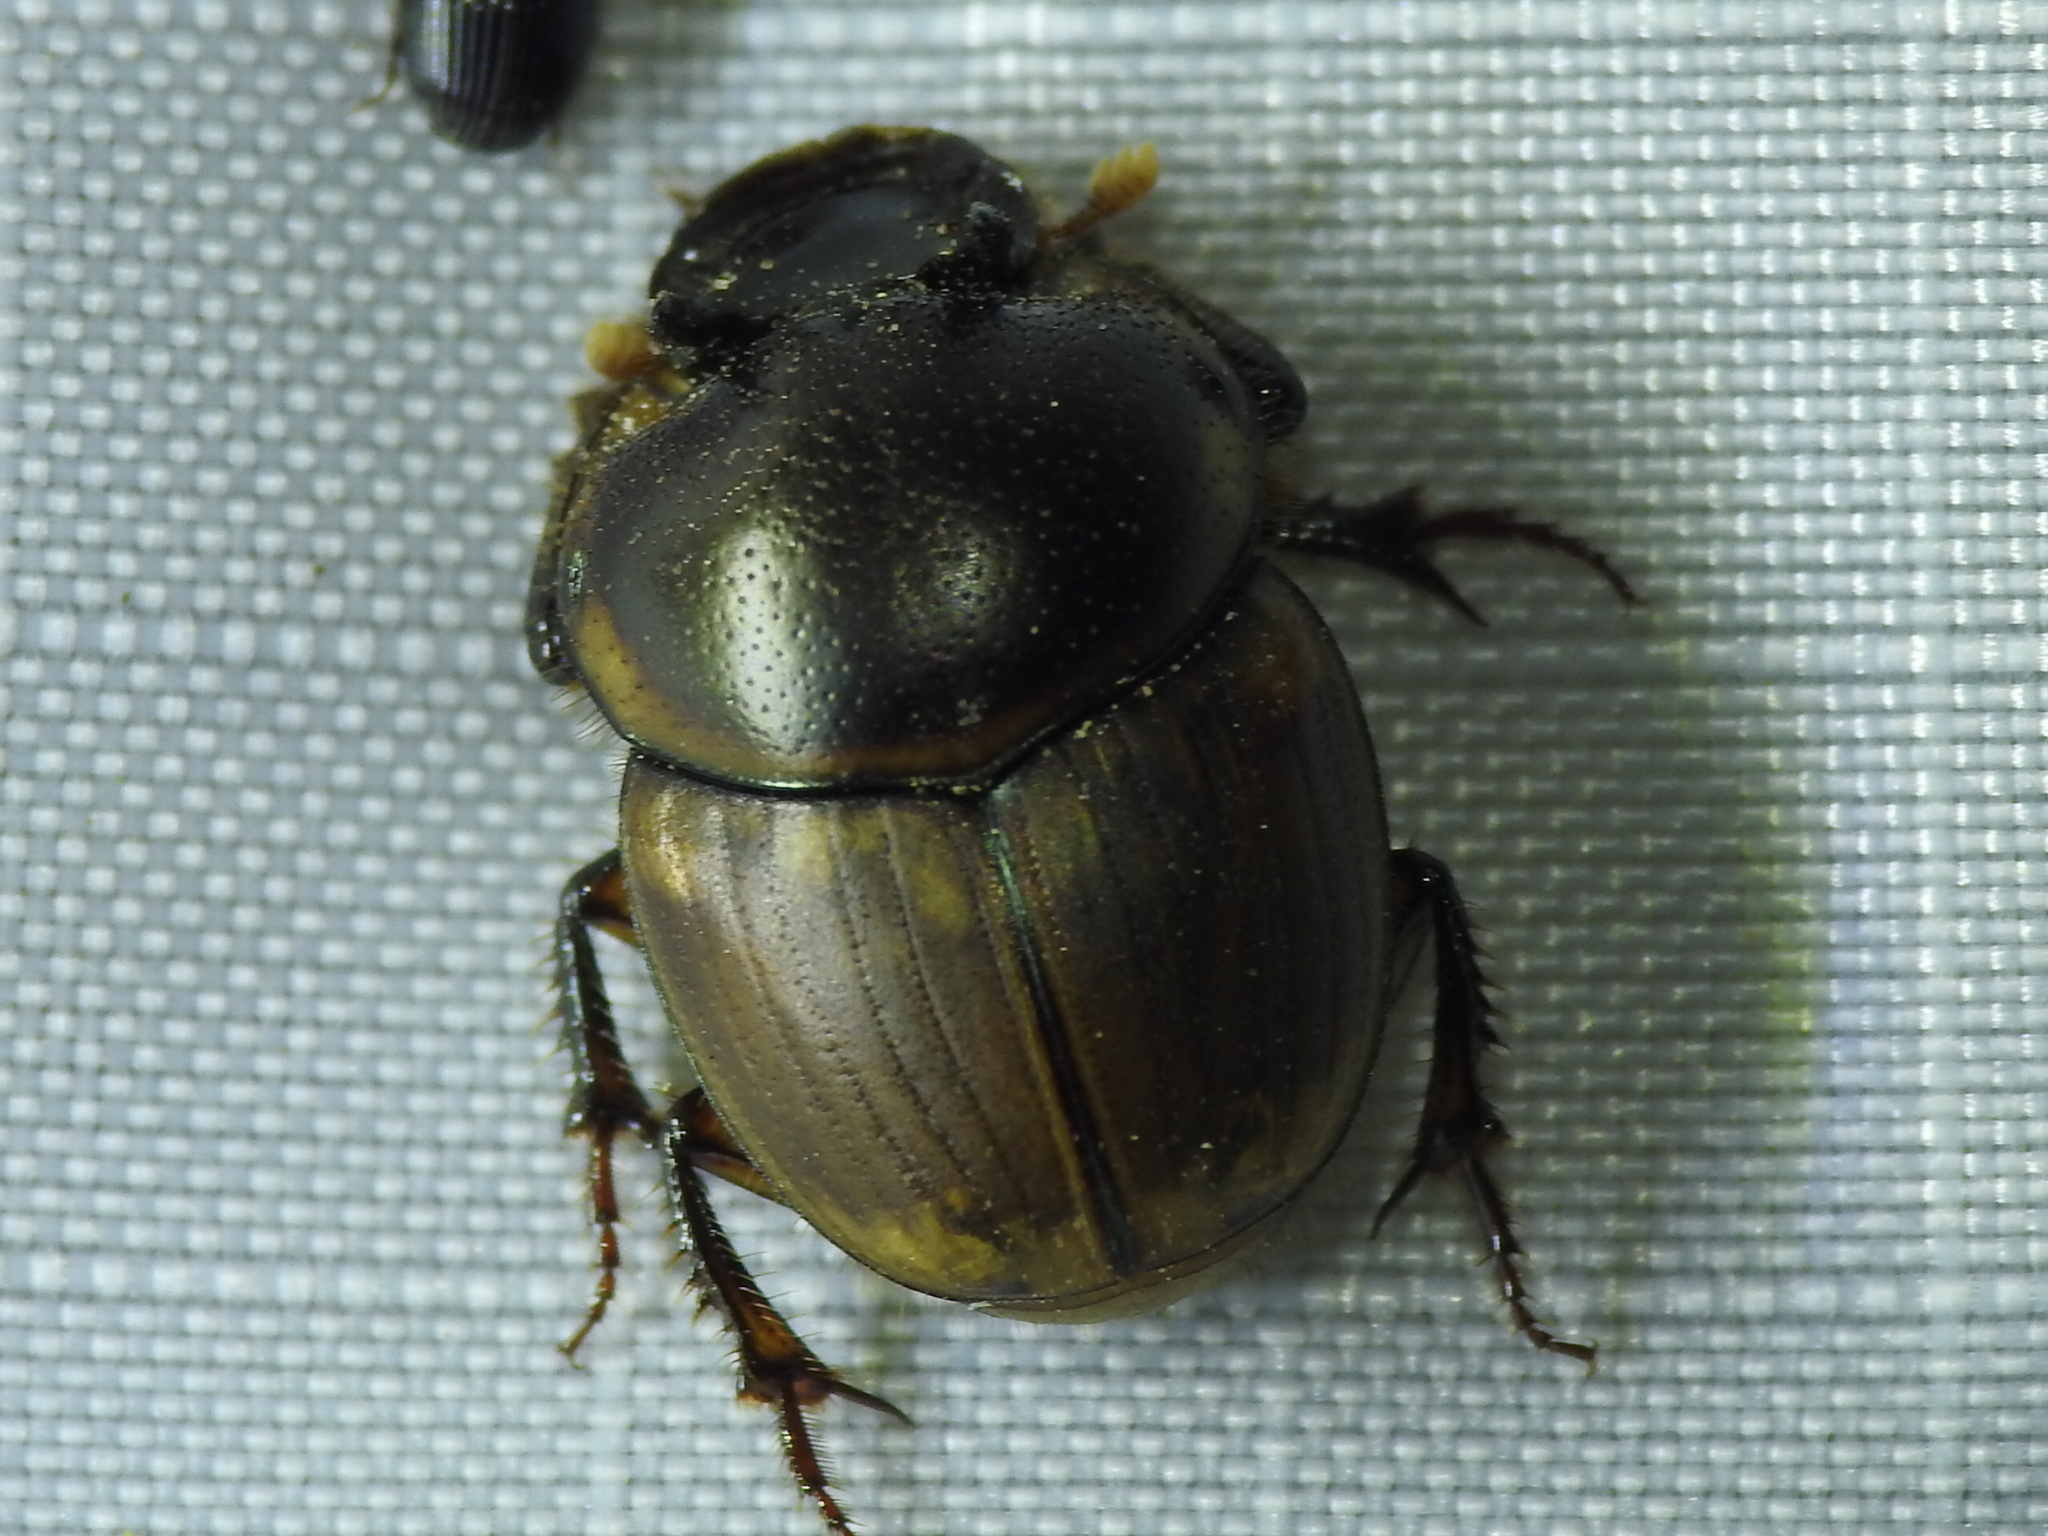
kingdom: Animalia
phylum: Arthropoda
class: Insecta
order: Coleoptera
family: Scarabaeidae
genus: Digitonthophagus
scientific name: Digitonthophagus gazella
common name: Brown dung beetle
